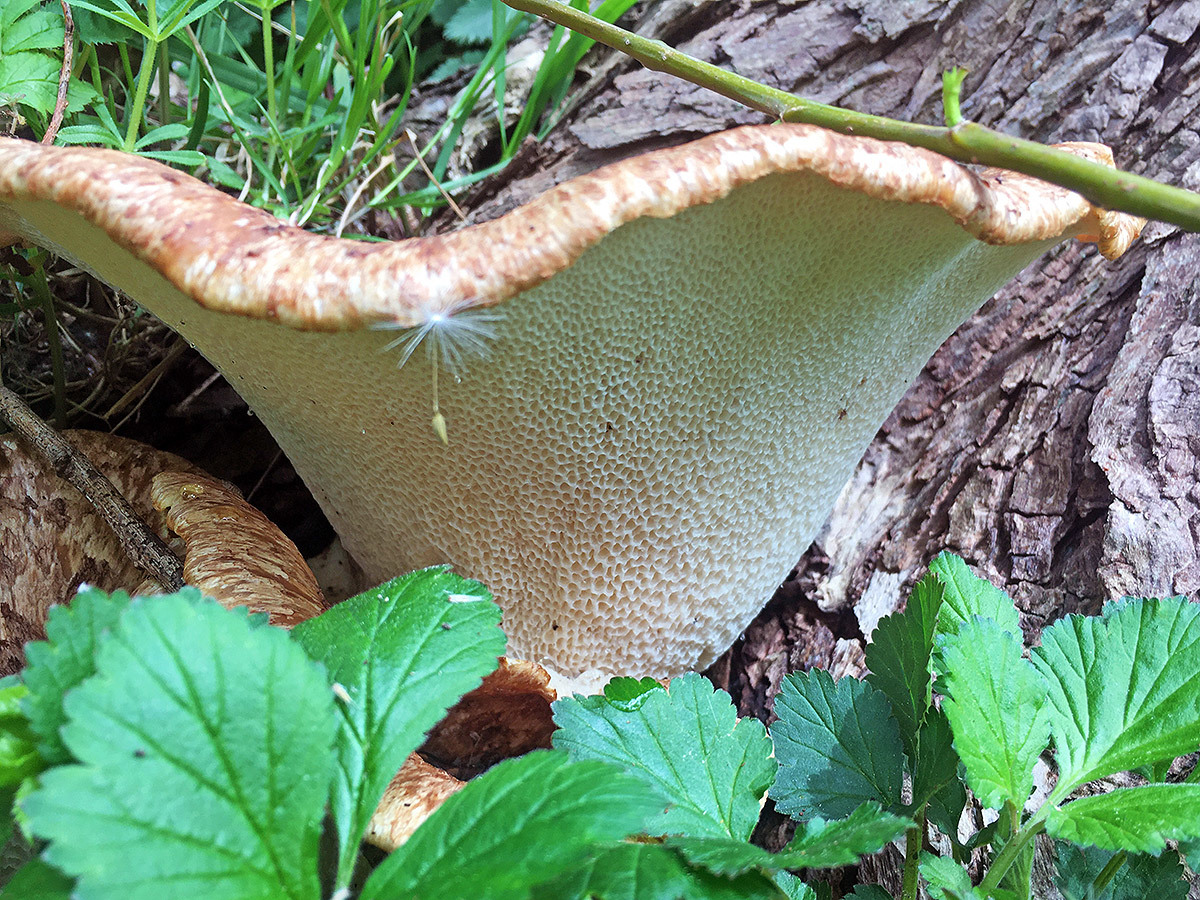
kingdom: Fungi
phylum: Basidiomycota
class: Agaricomycetes
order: Polyporales
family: Polyporaceae
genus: Cerioporus
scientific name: Cerioporus squamosus
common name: Dryad's saddle
